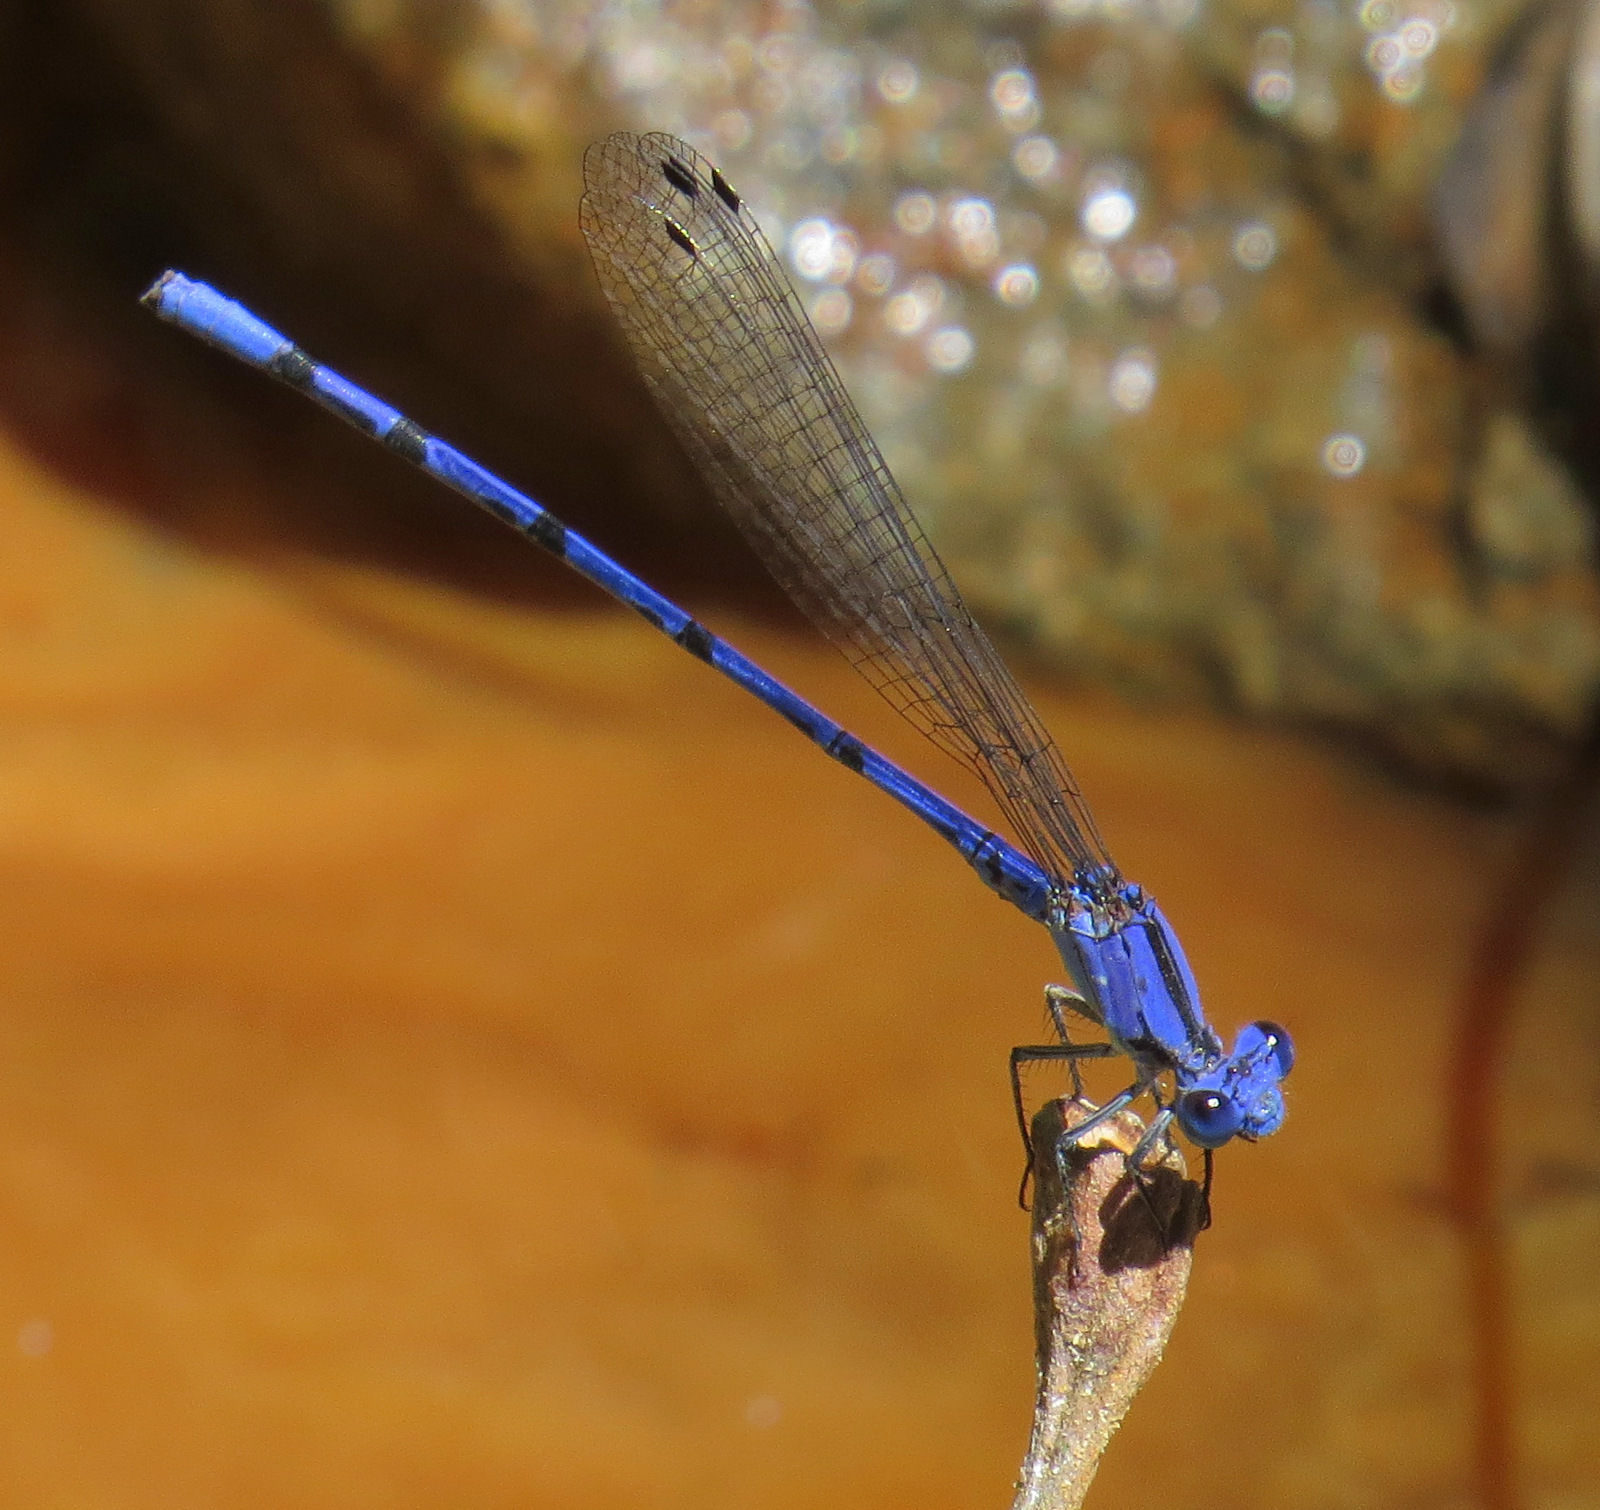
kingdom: Animalia
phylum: Arthropoda
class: Insecta
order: Odonata
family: Coenagrionidae
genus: Argia
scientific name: Argia extranea
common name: Spine-tipped dancer
